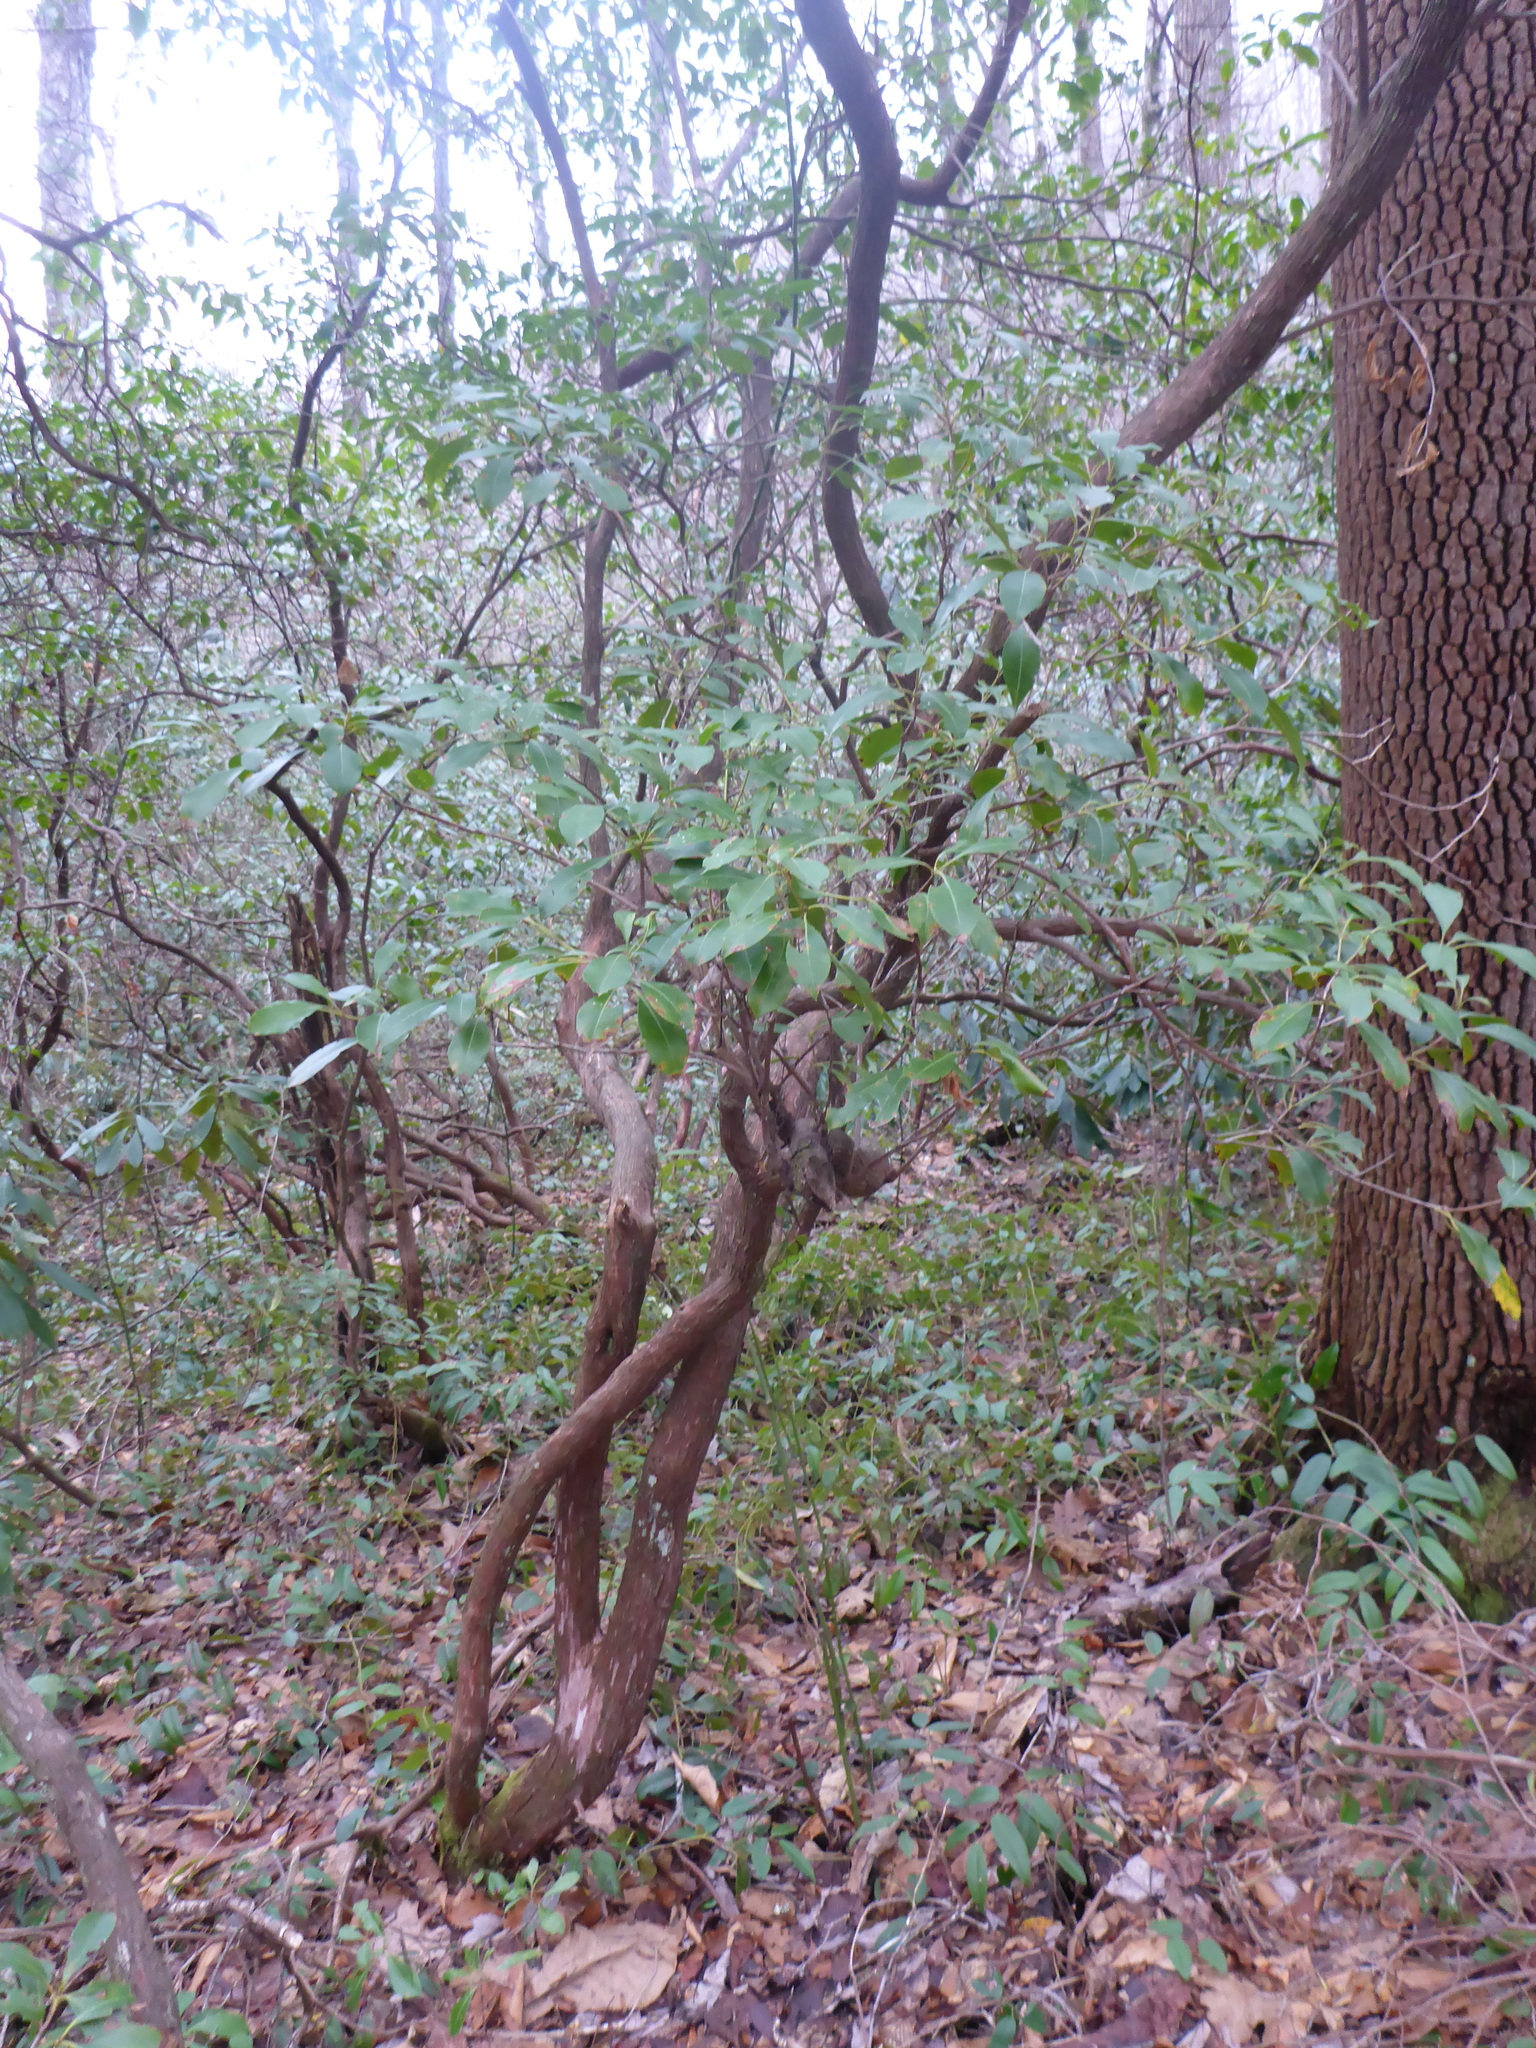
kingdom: Plantae
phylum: Tracheophyta
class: Magnoliopsida
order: Ericales
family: Ericaceae
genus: Kalmia
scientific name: Kalmia latifolia
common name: Mountain-laurel
